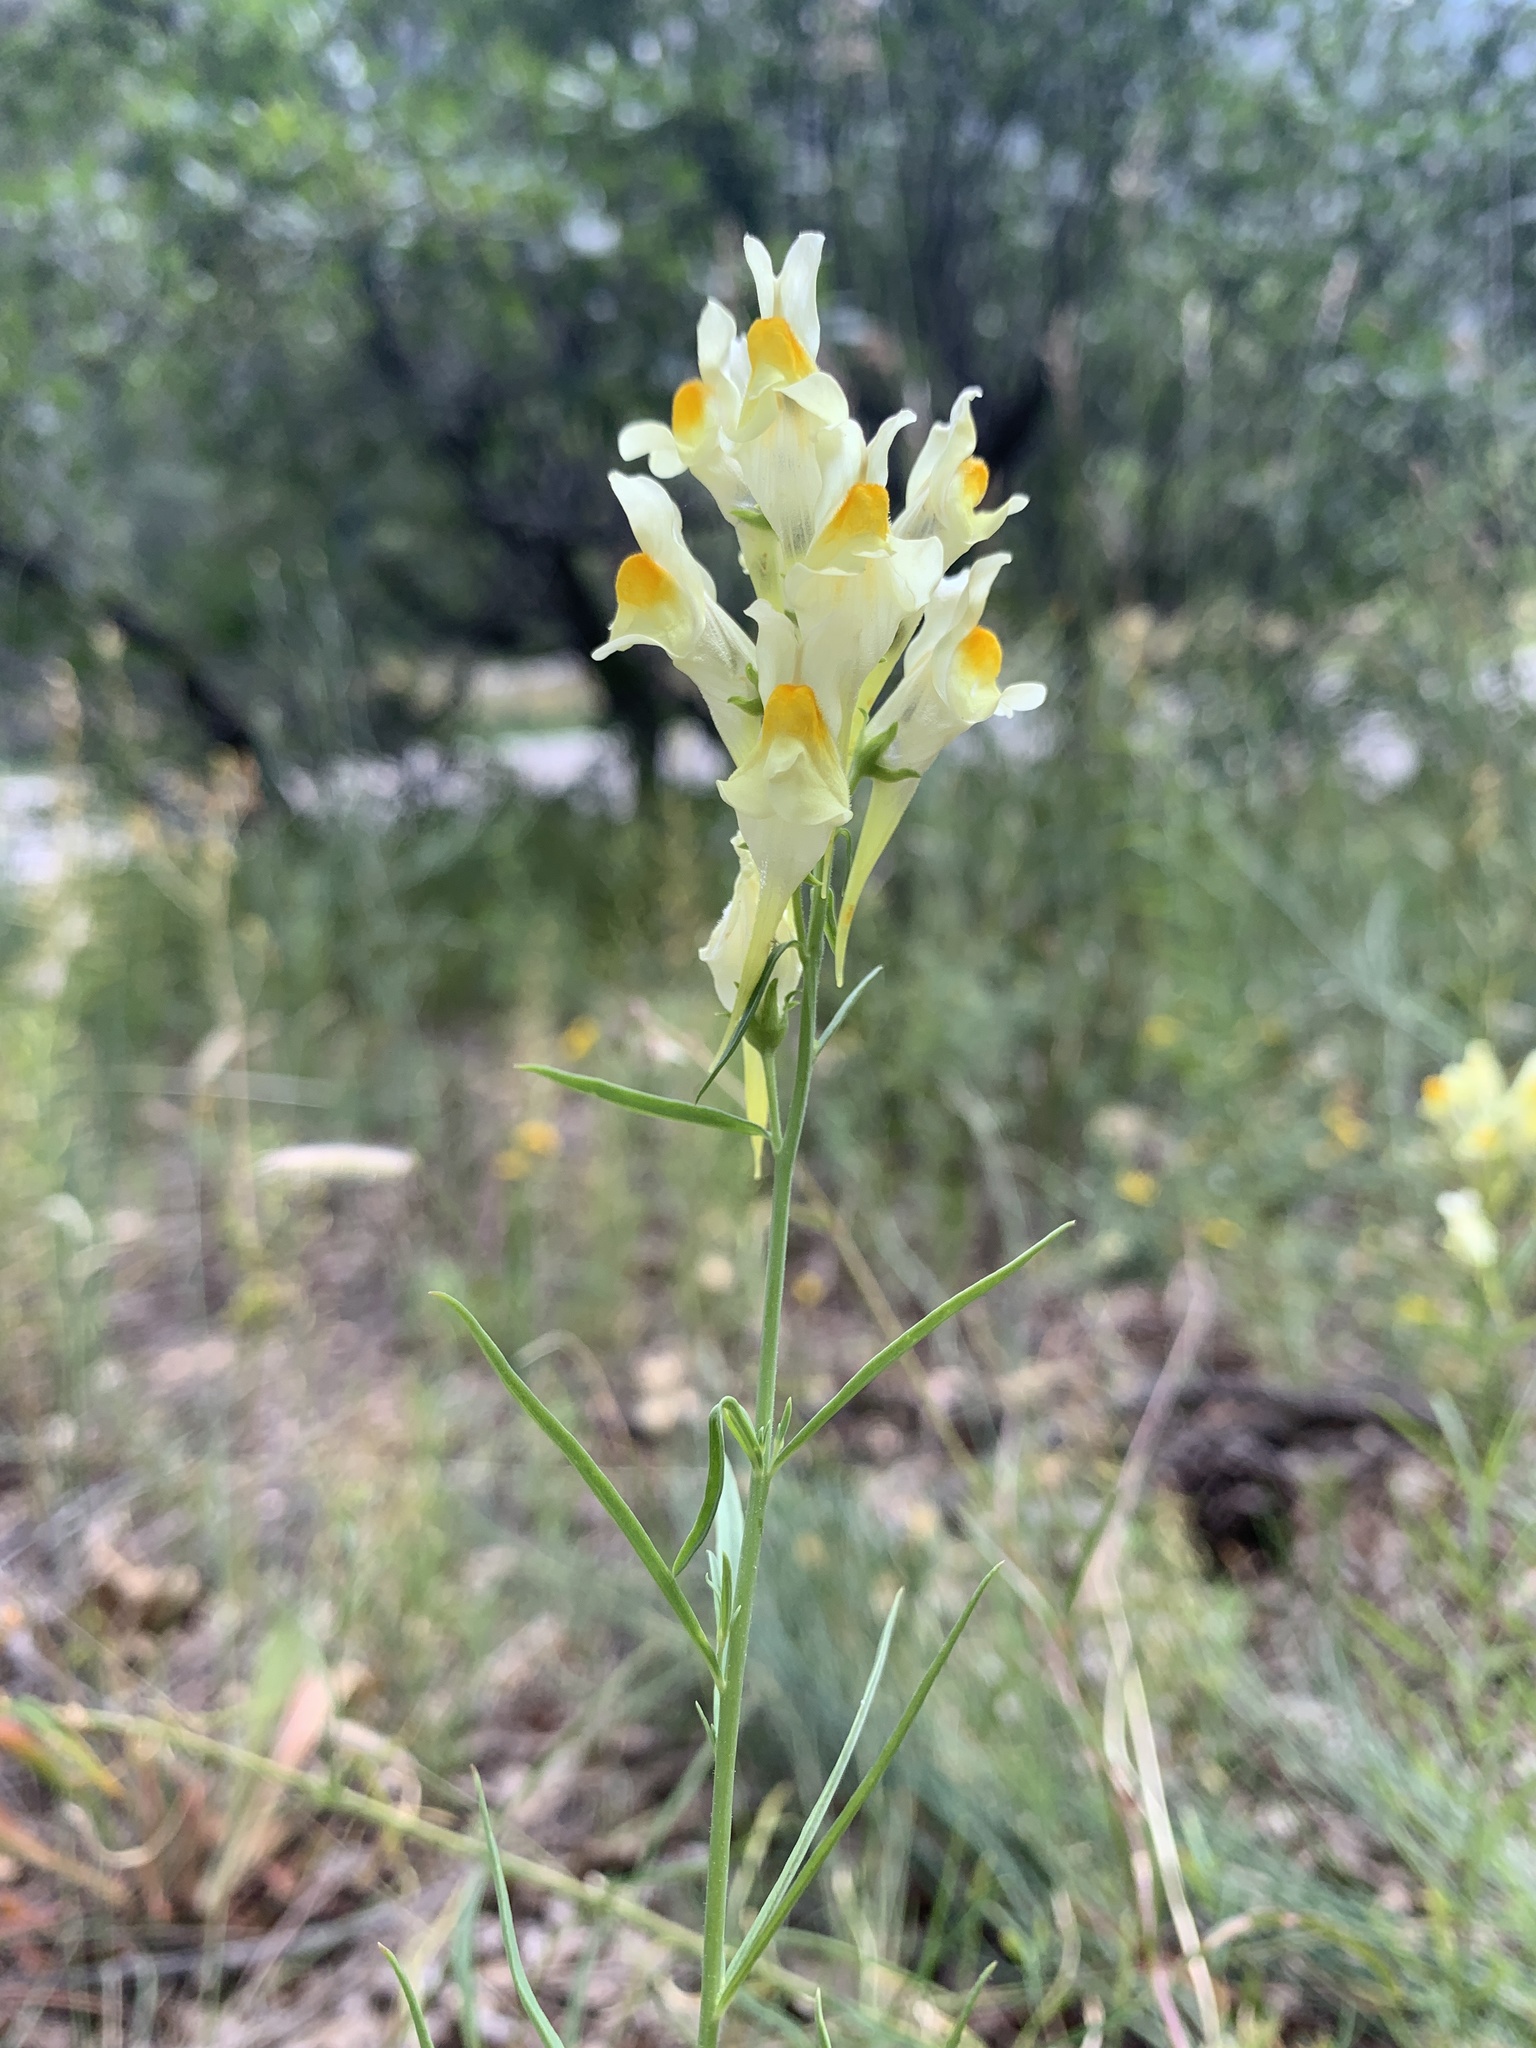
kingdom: Plantae
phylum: Tracheophyta
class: Magnoliopsida
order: Lamiales
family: Plantaginaceae
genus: Linaria
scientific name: Linaria vulgaris
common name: Butter and eggs
